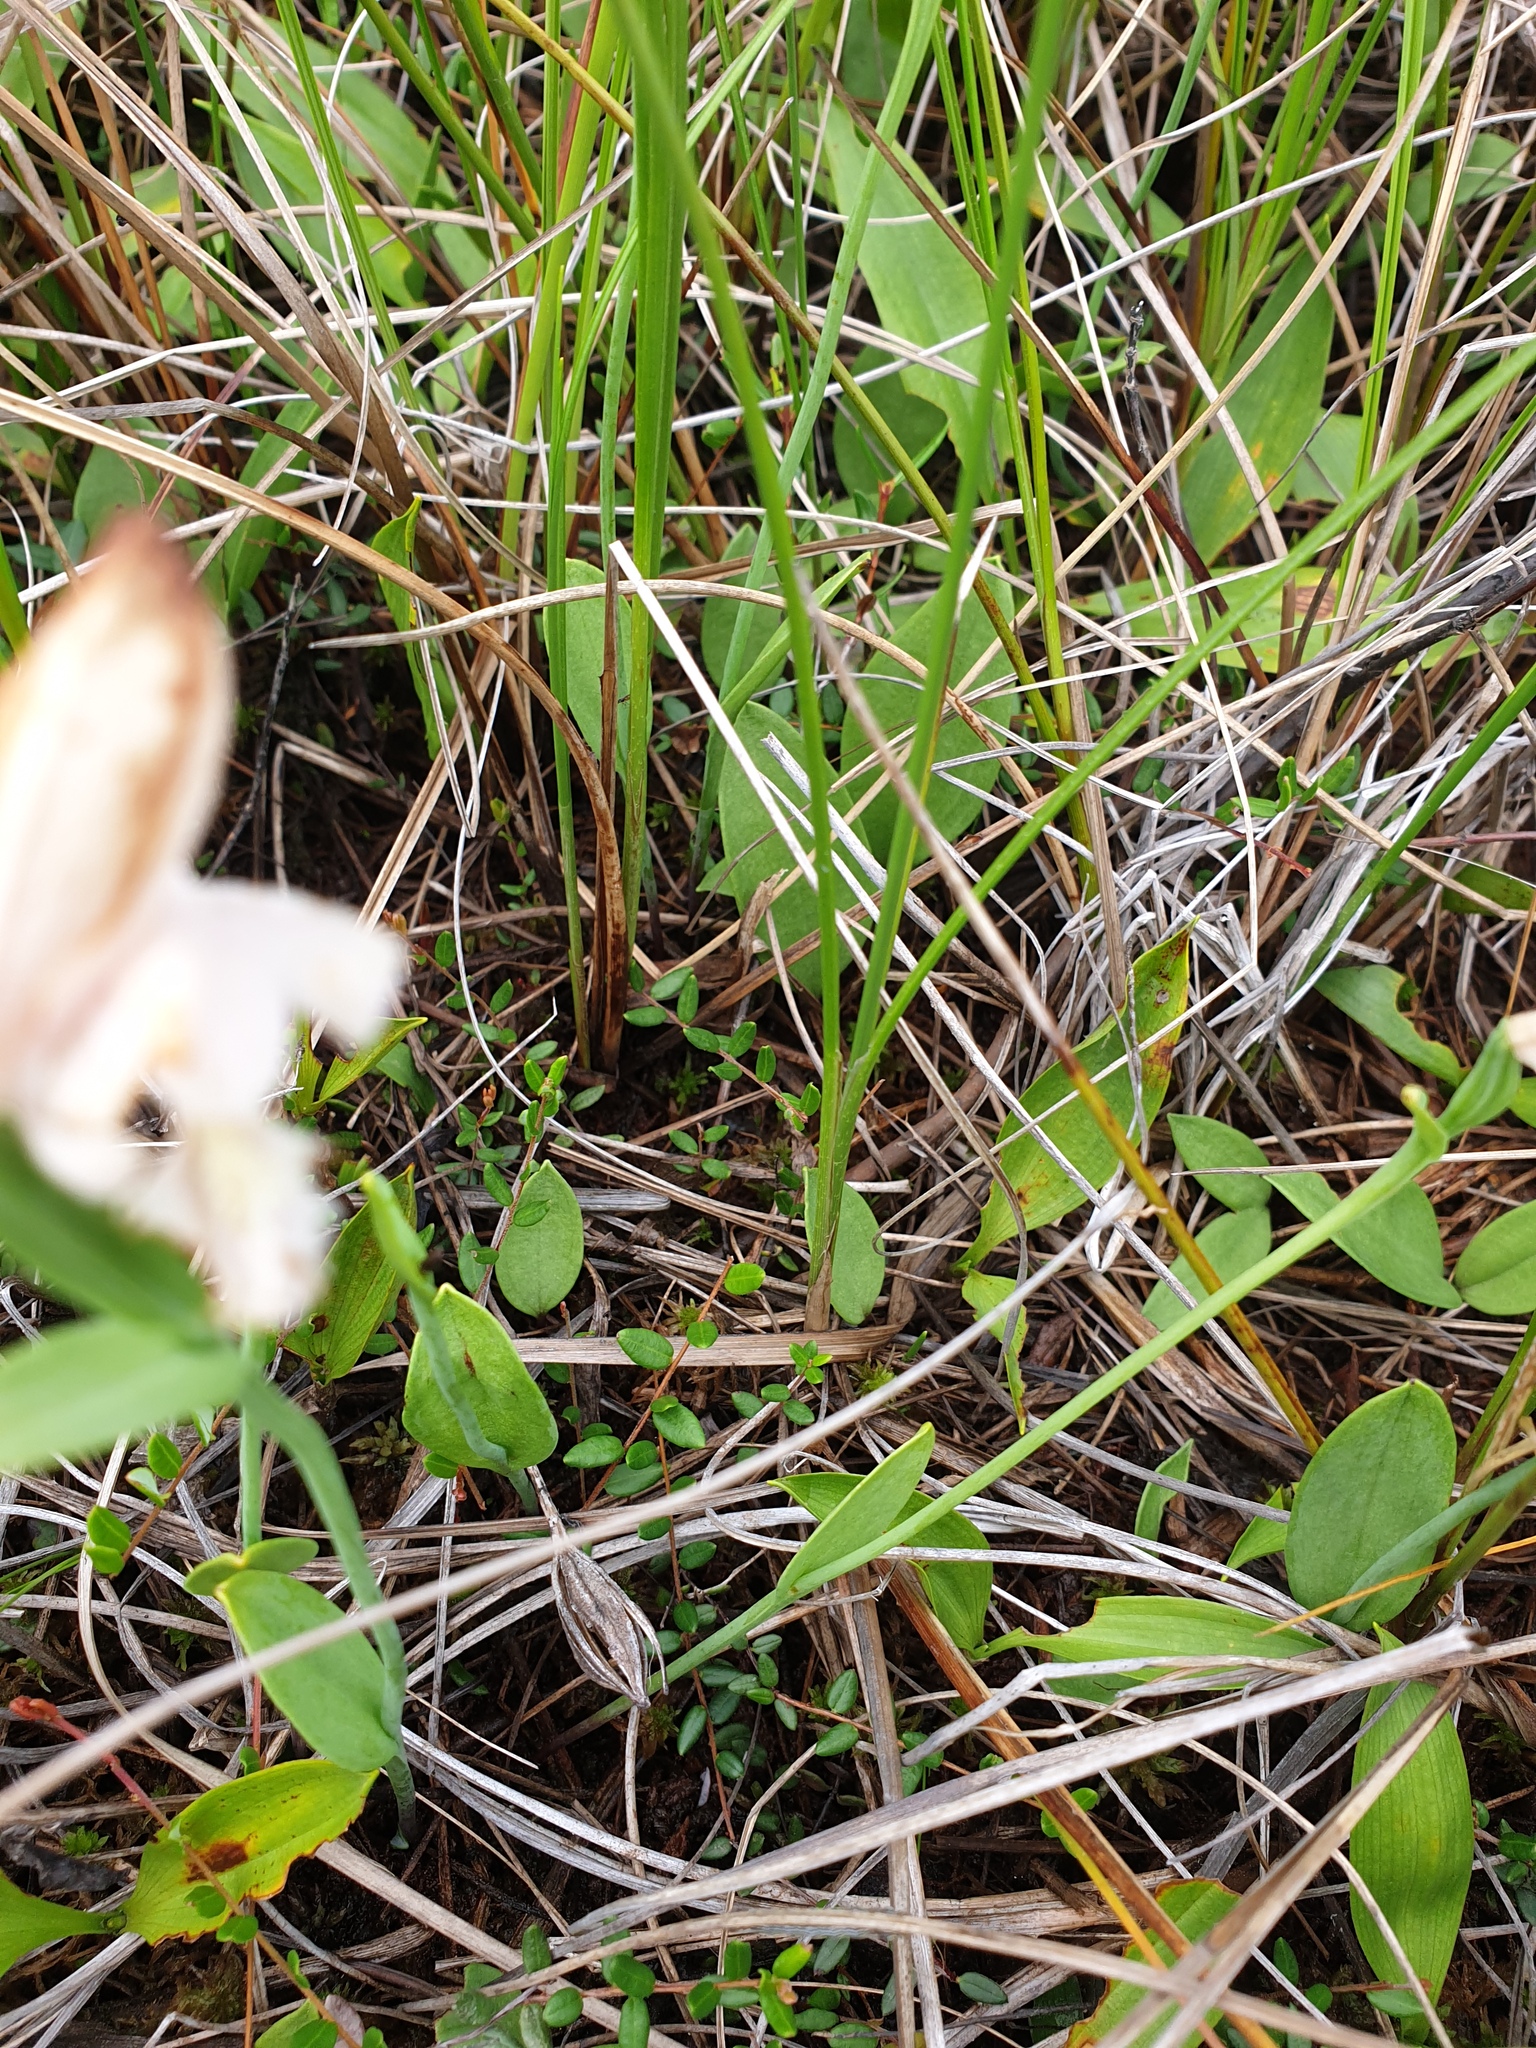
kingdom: Plantae
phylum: Tracheophyta
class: Liliopsida
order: Asparagales
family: Orchidaceae
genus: Pogonia
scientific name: Pogonia ophioglossoides
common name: Rose pogonia
